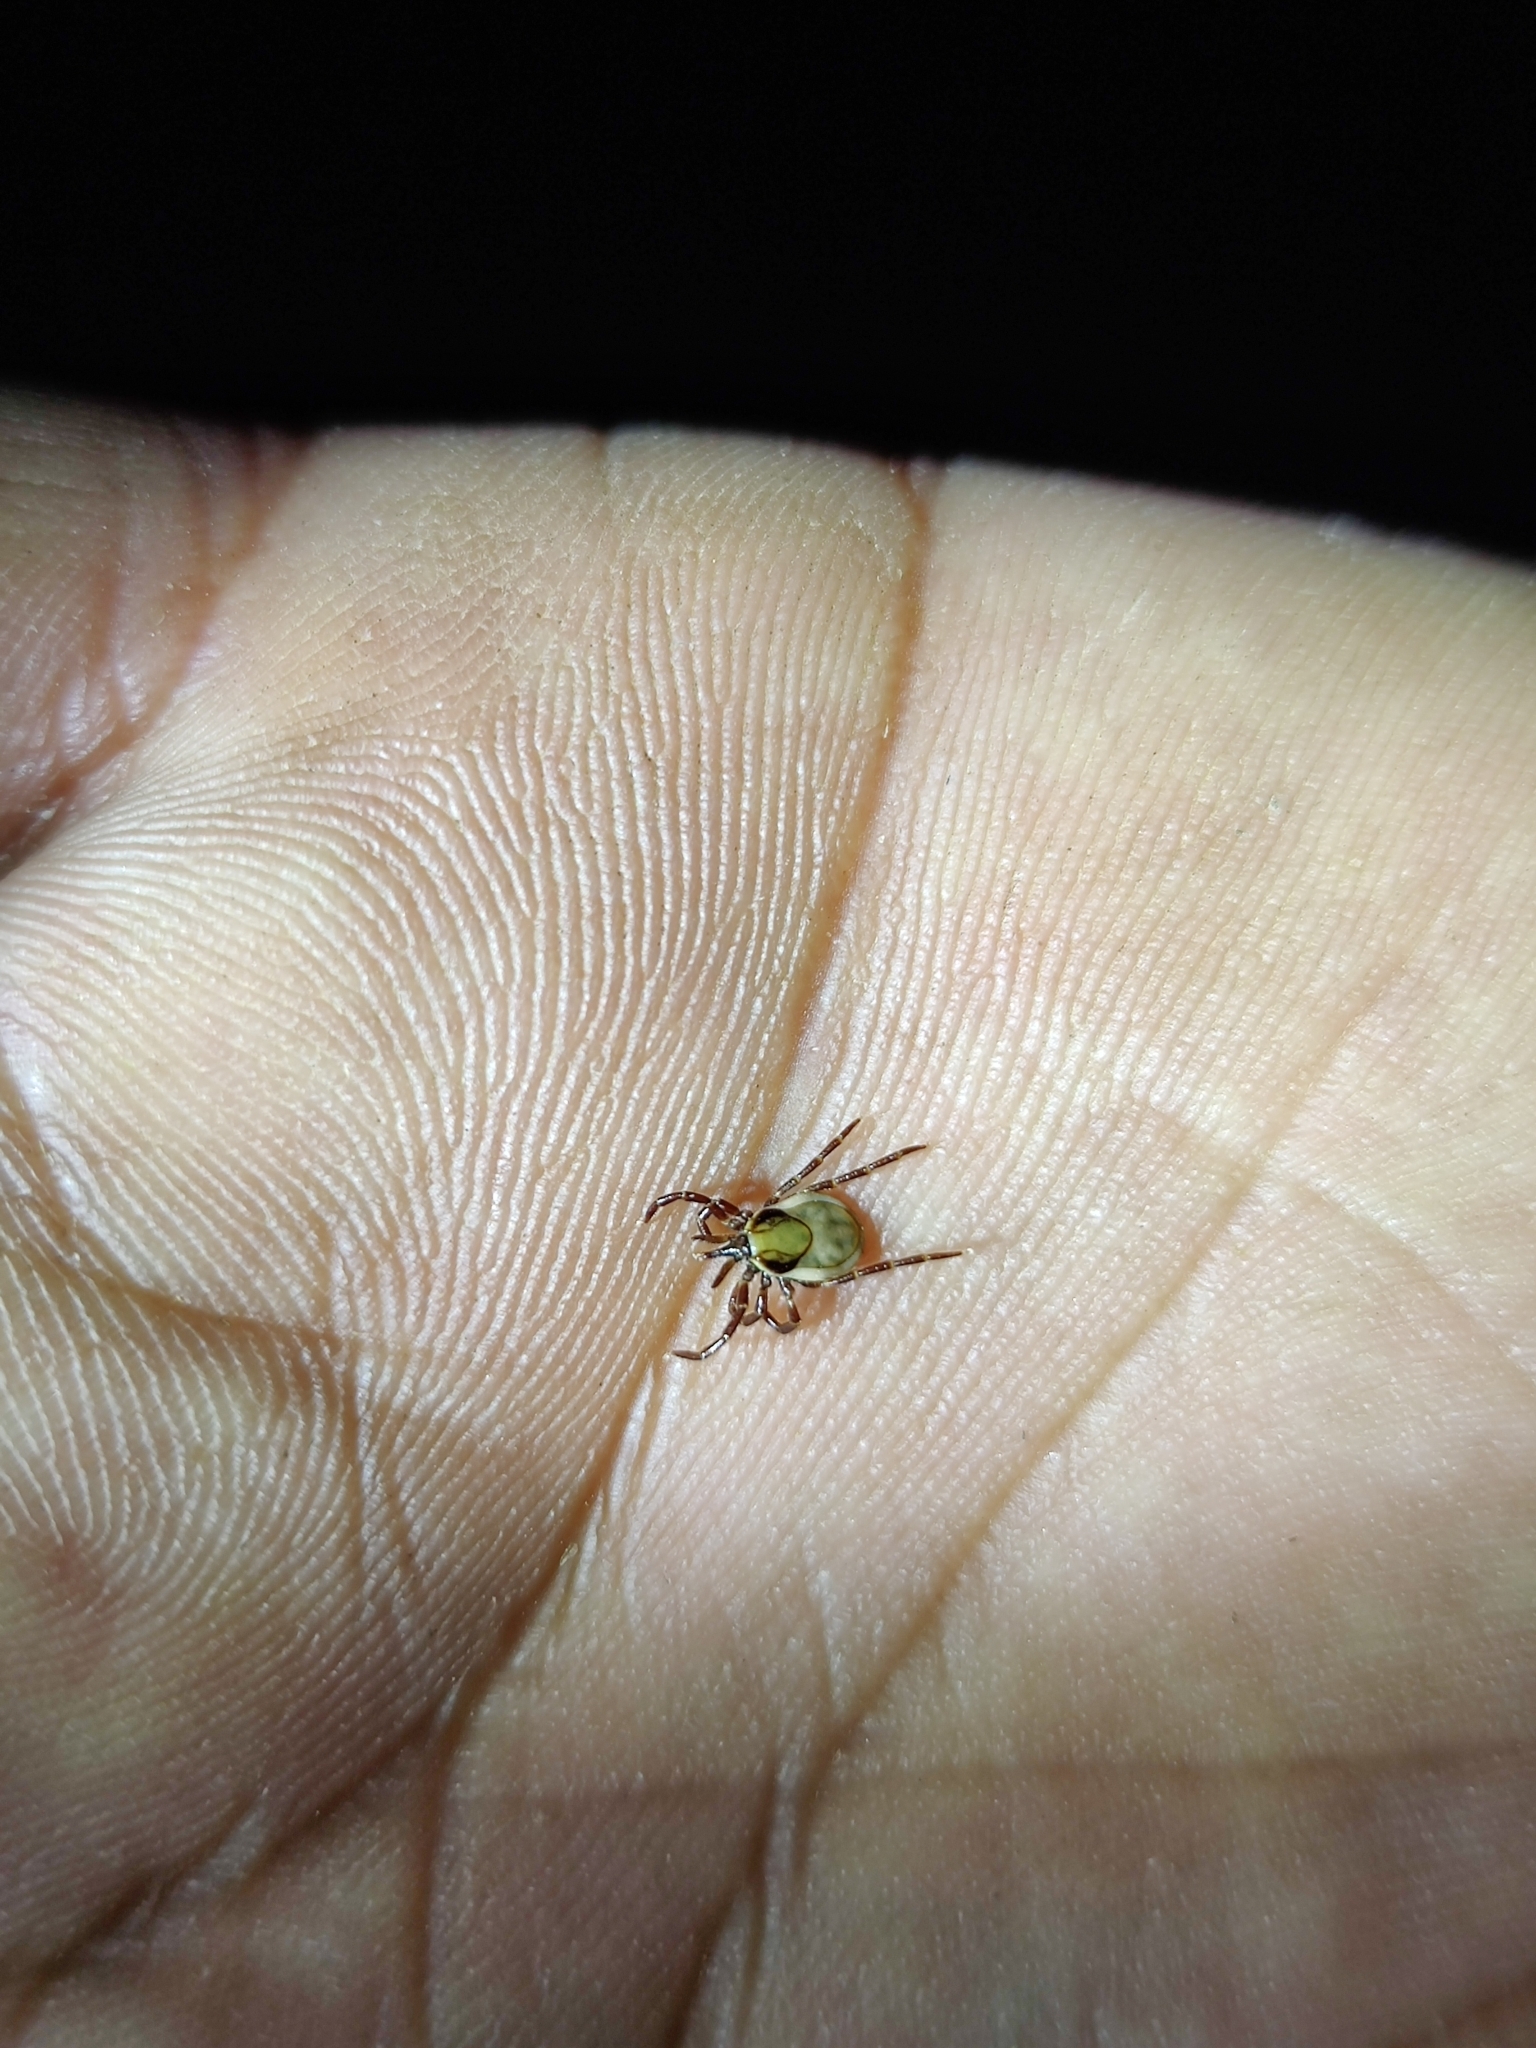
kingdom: Animalia
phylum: Arthropoda
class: Arachnida
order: Ixodida
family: Ixodidae
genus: Ixodes
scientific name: Ixodes acutitarsus
